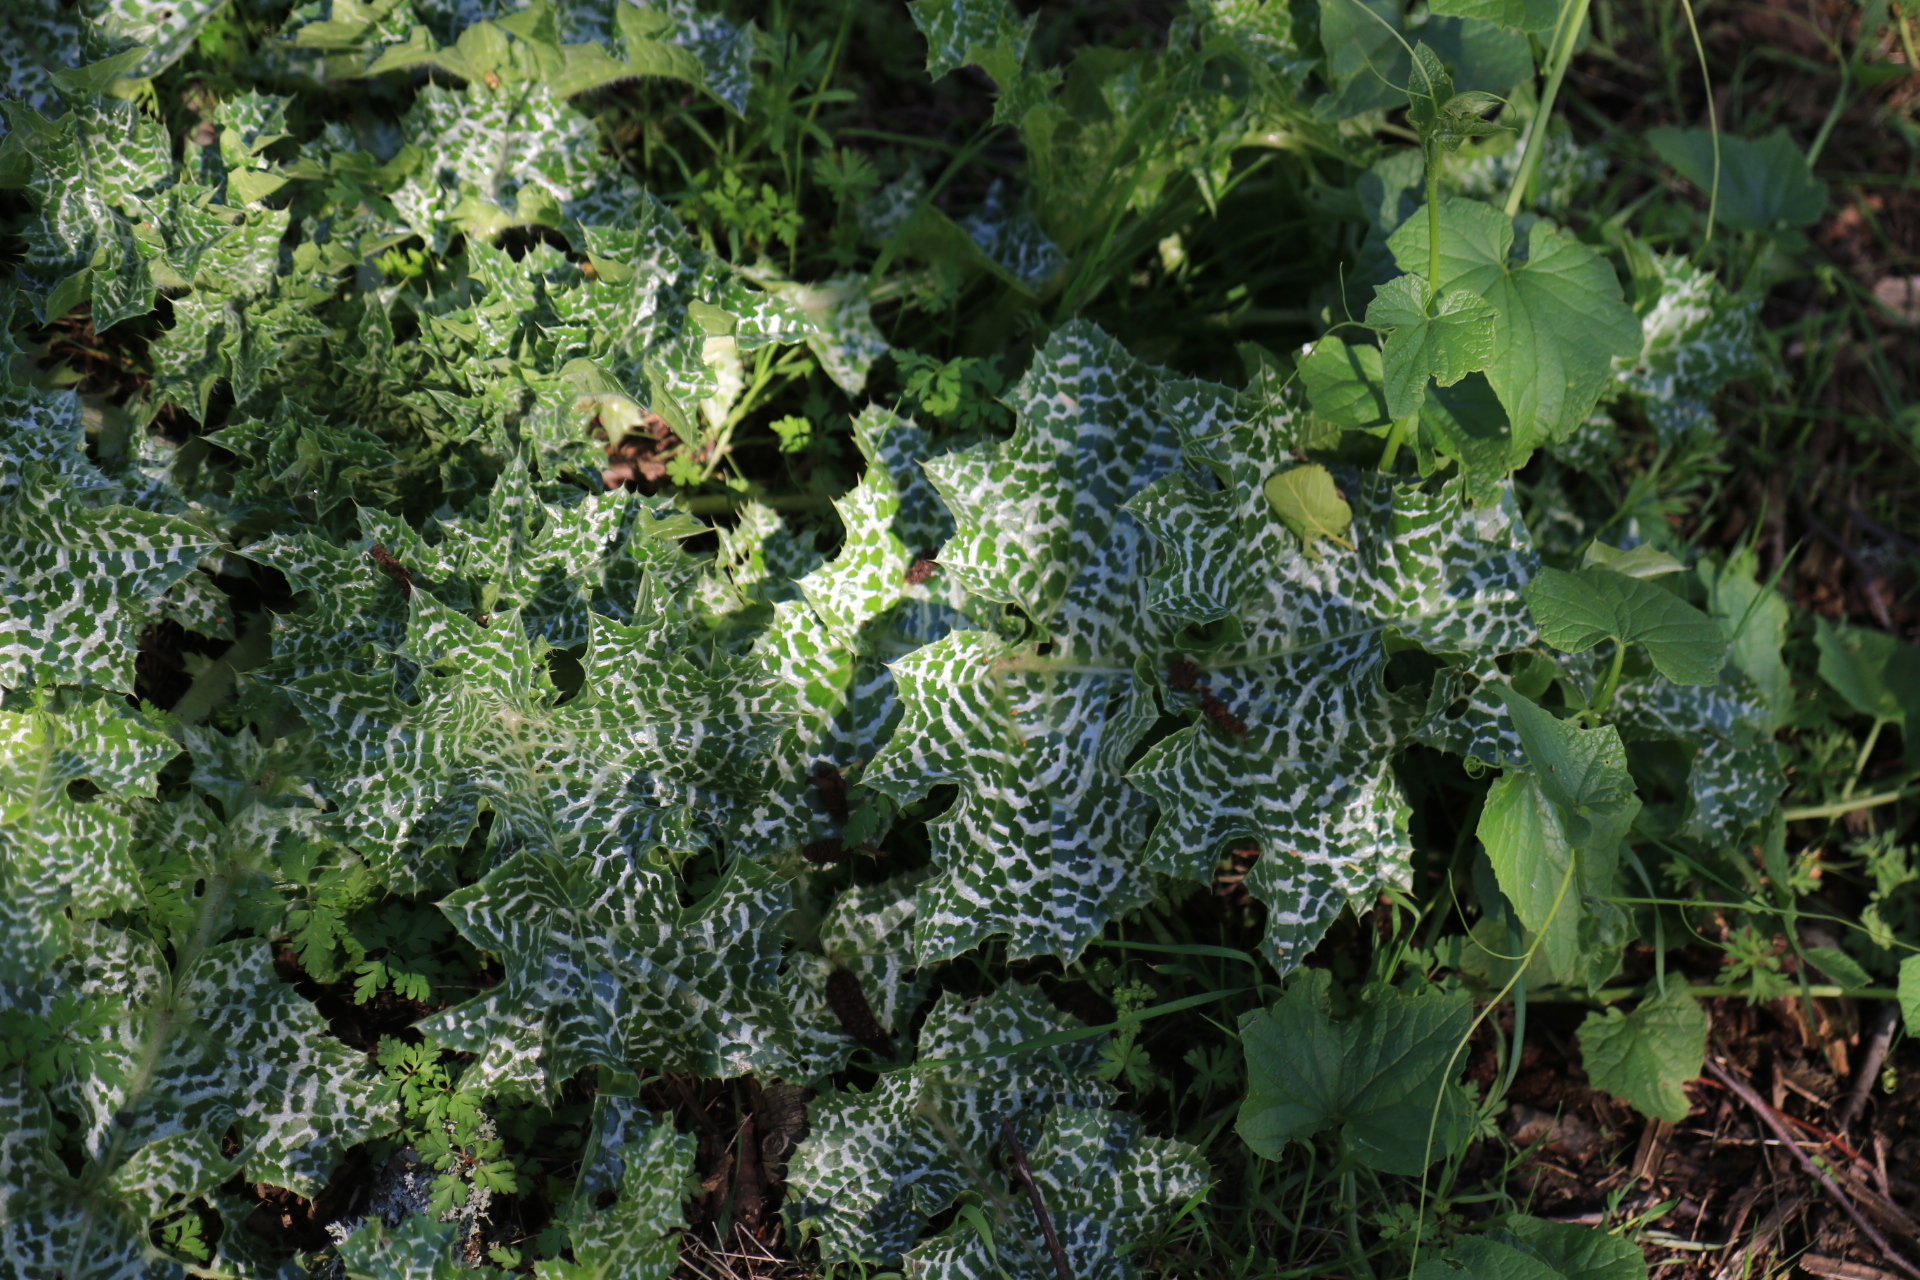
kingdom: Plantae
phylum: Tracheophyta
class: Magnoliopsida
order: Asterales
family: Asteraceae
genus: Silybum
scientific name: Silybum marianum
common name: Milk thistle
